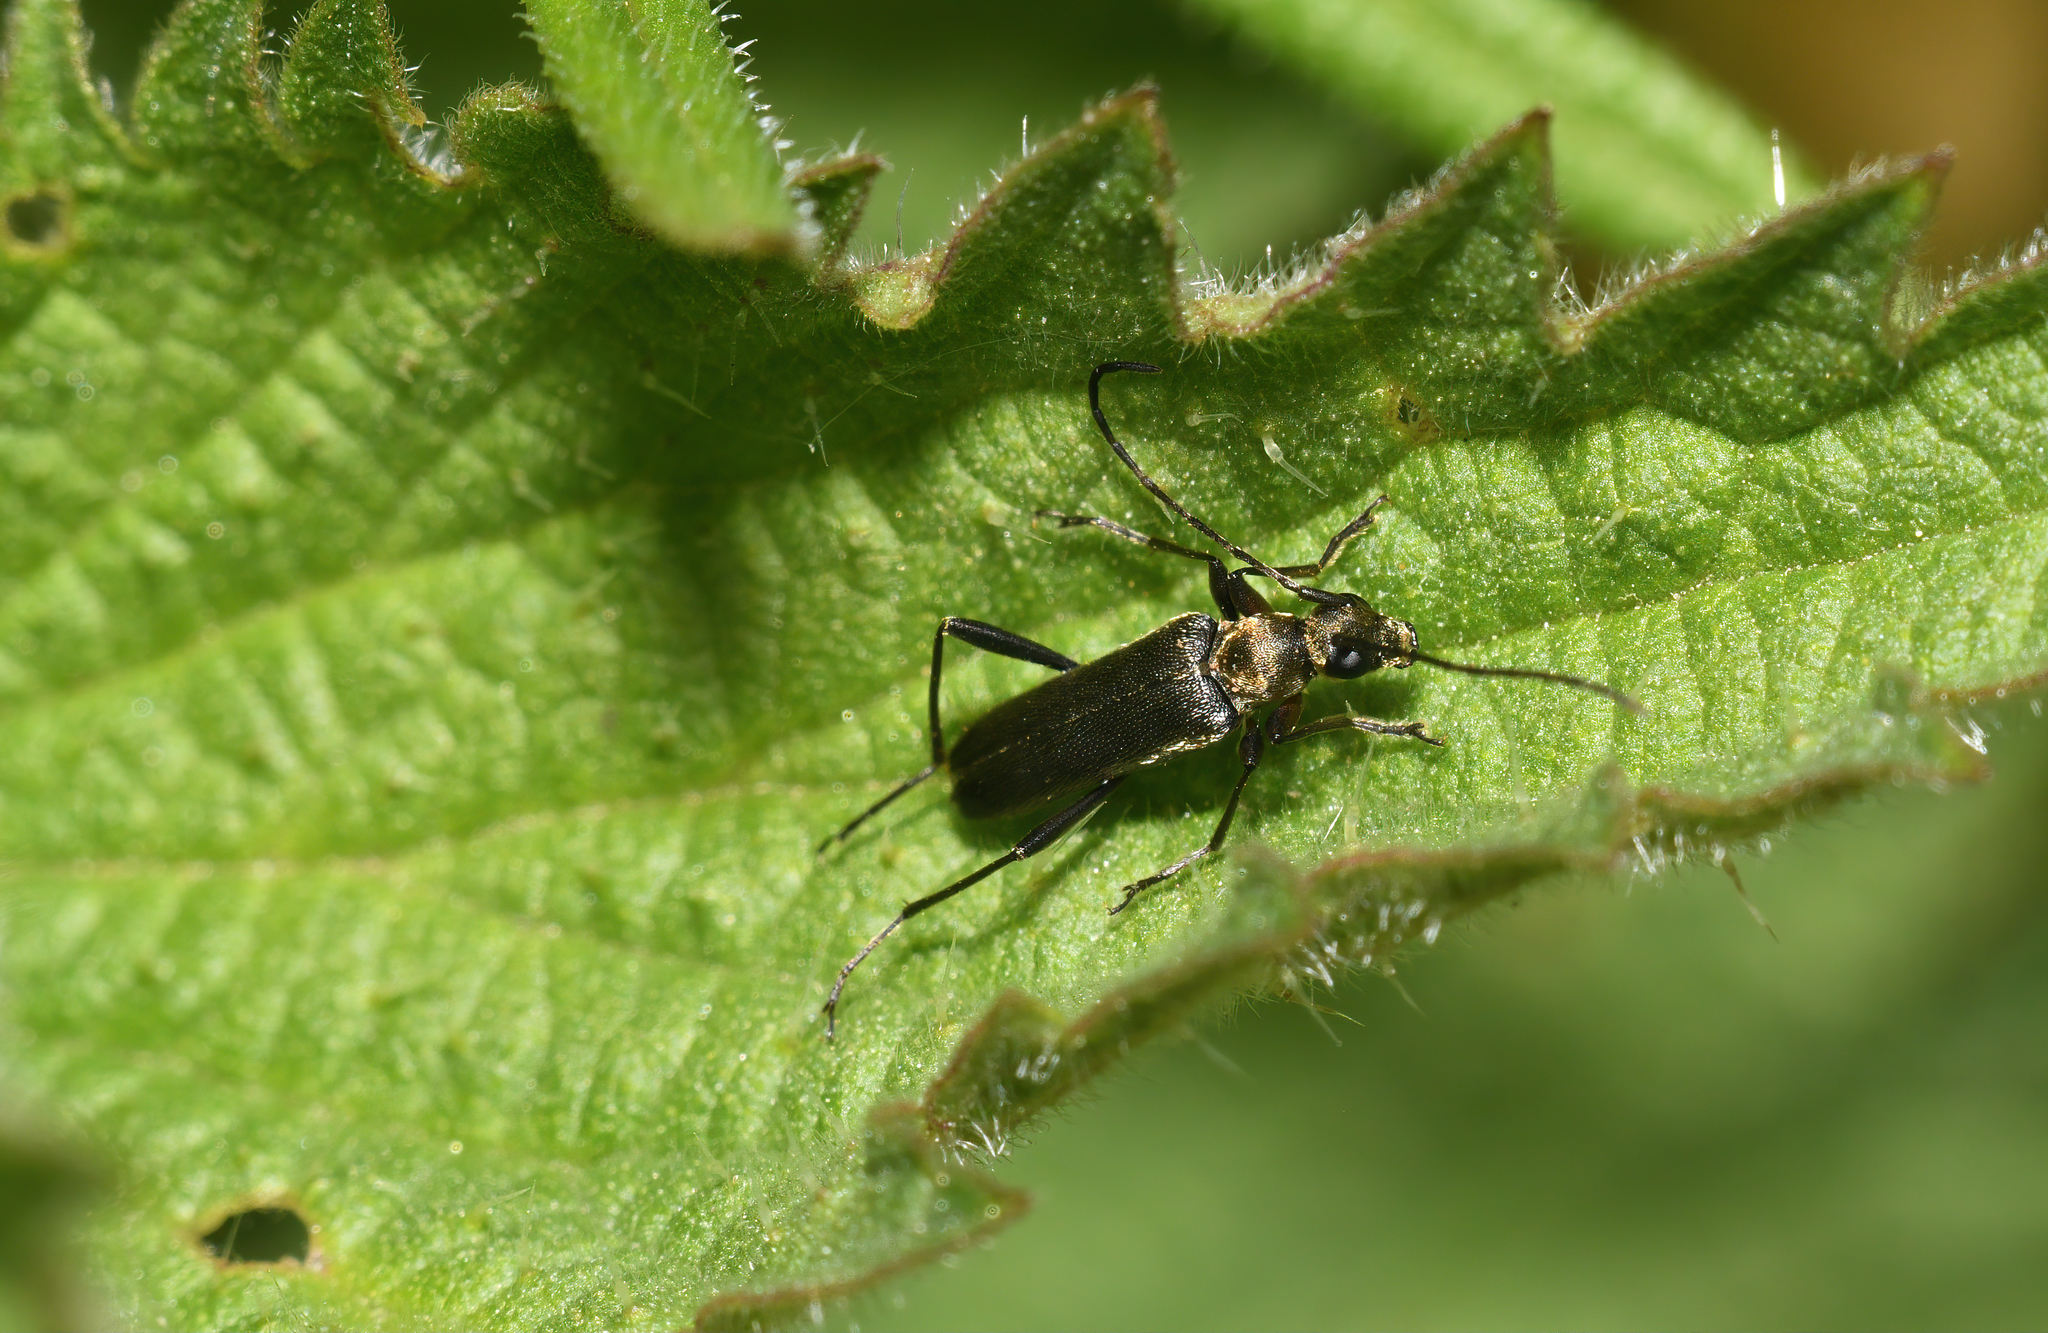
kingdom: Animalia
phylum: Arthropoda
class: Insecta
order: Coleoptera
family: Cerambycidae
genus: Grammoptera
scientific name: Grammoptera ruficornis
